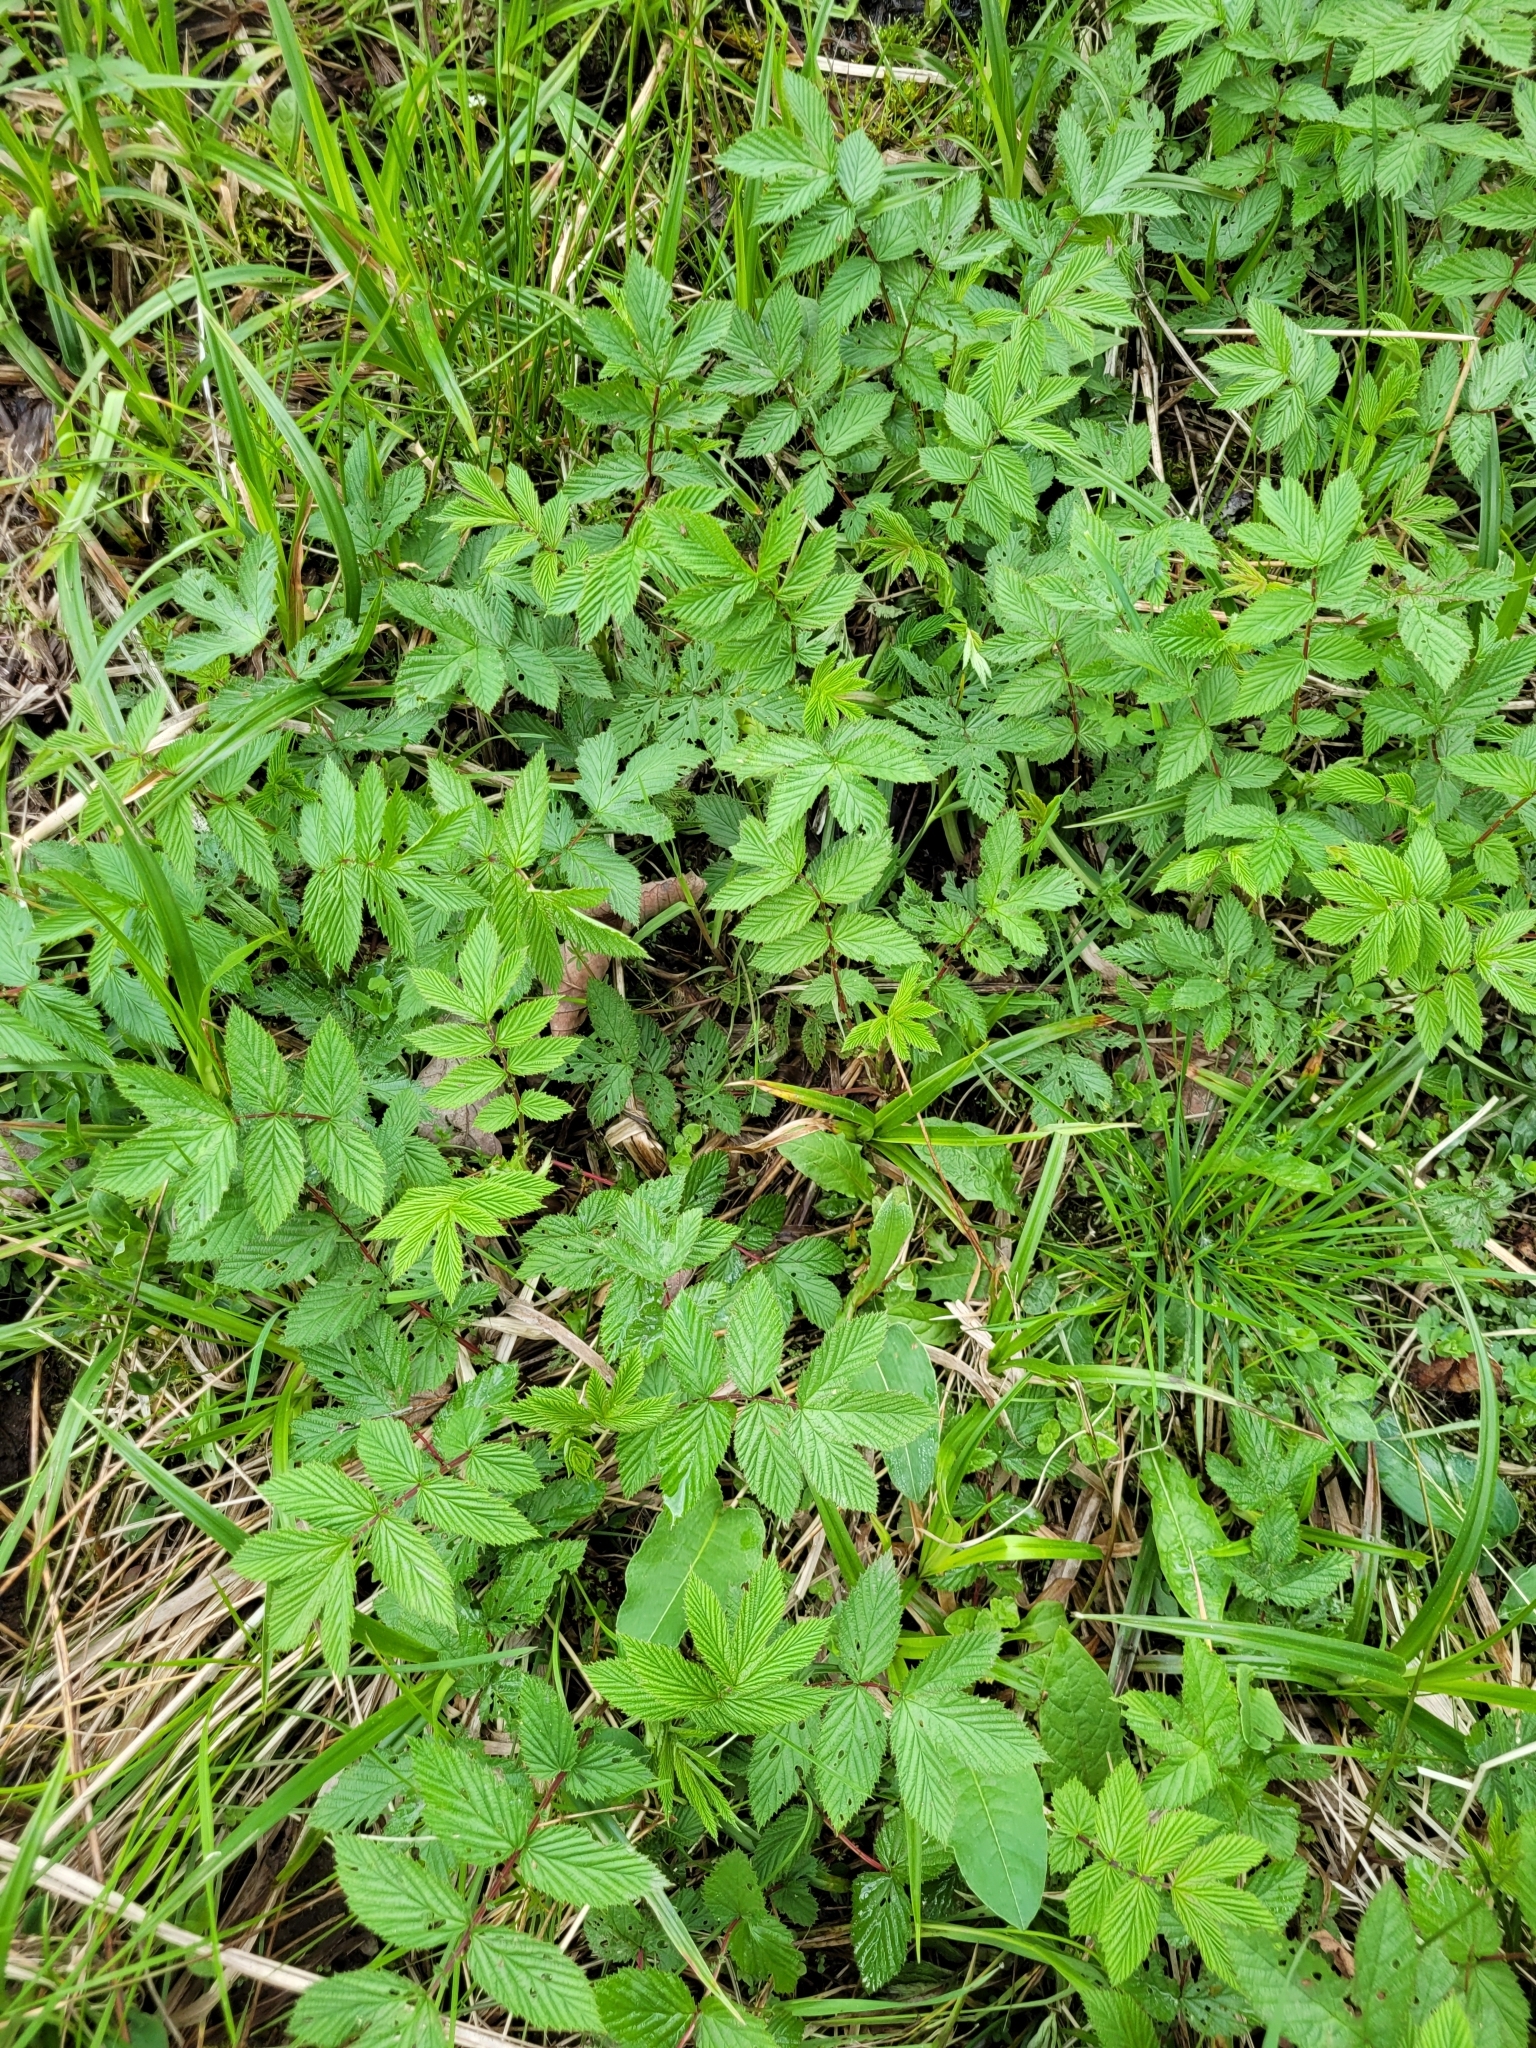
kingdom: Plantae
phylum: Tracheophyta
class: Magnoliopsida
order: Rosales
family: Rosaceae
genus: Filipendula
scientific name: Filipendula ulmaria
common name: Meadowsweet
